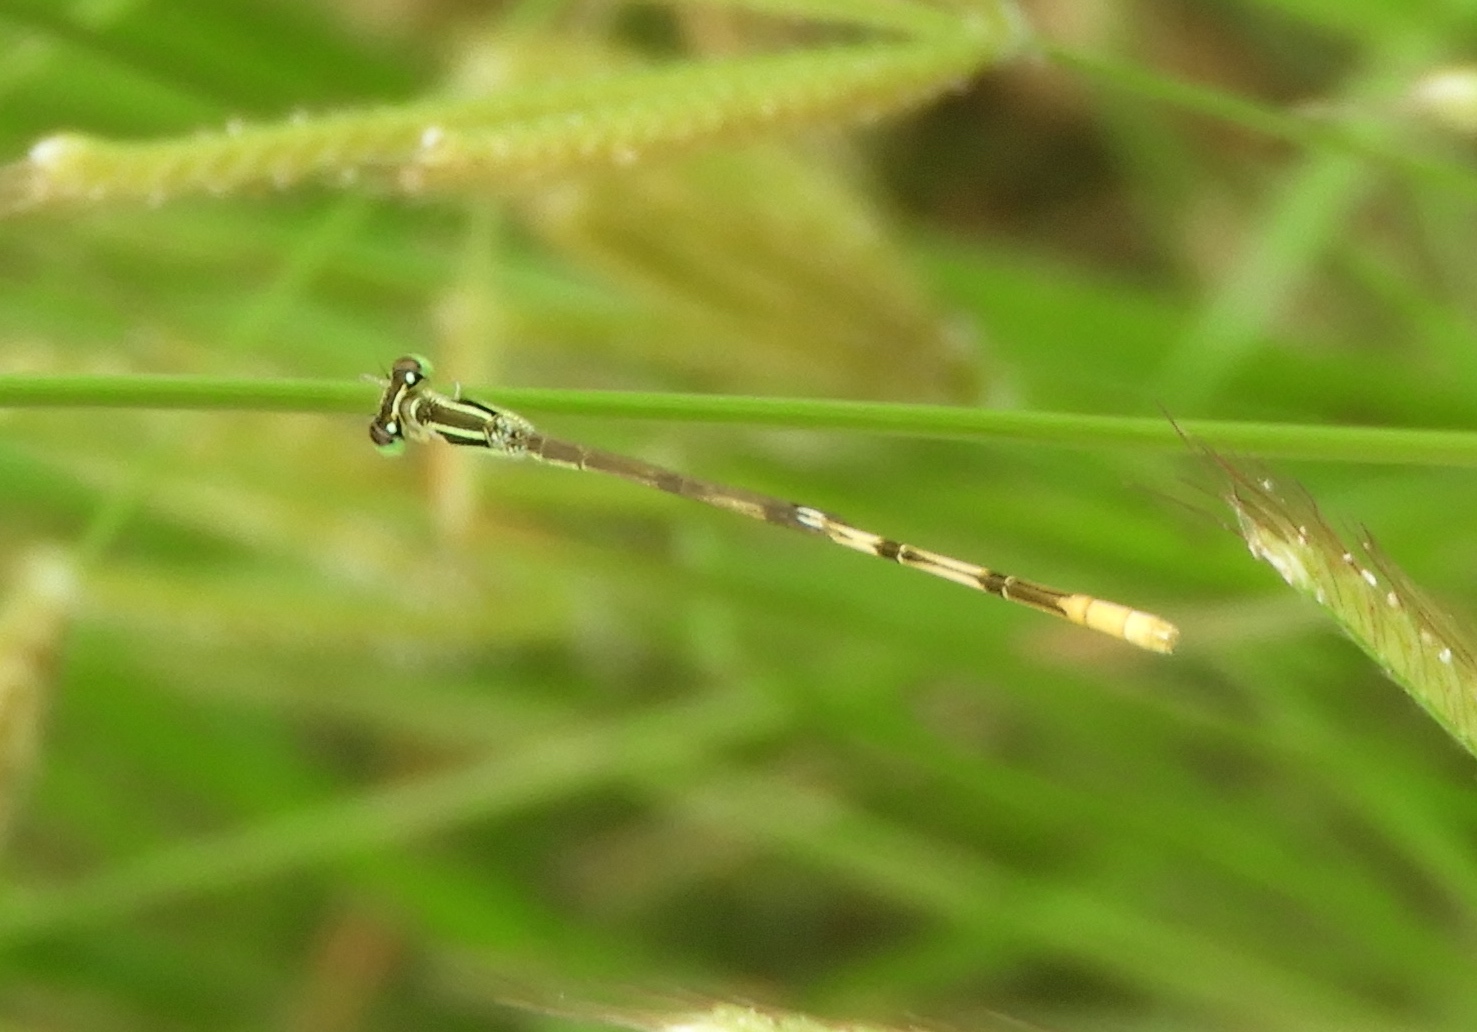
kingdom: Animalia
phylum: Arthropoda
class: Insecta
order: Odonata
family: Coenagrionidae
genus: Ischnura
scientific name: Ischnura hastata
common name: Citrine forktail
